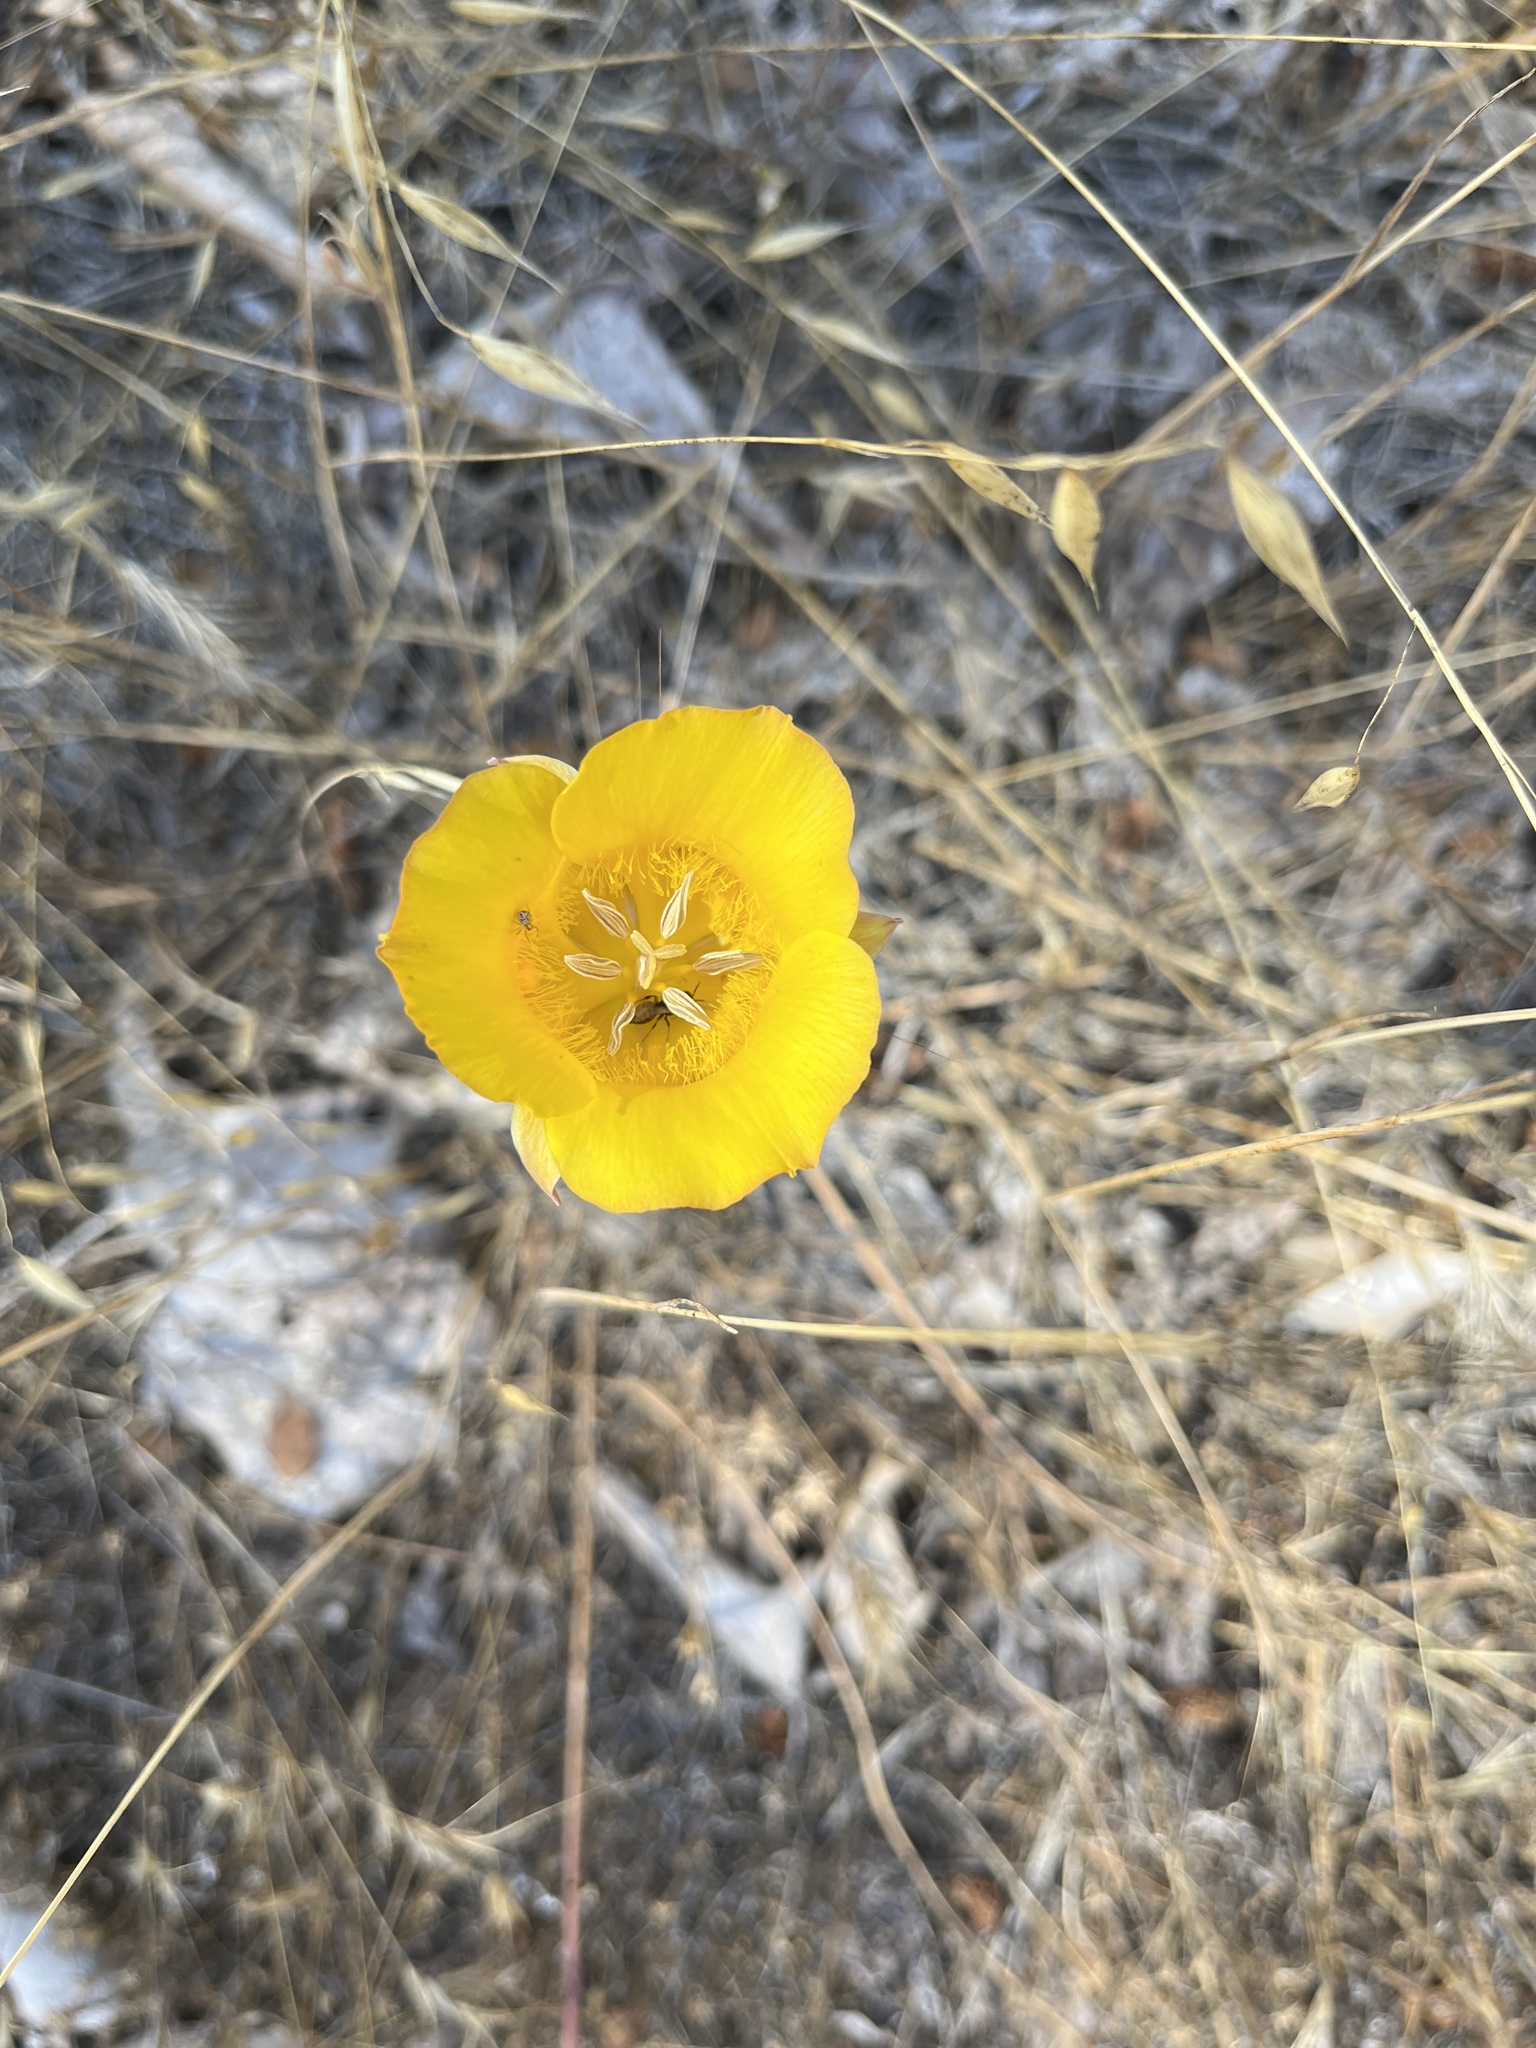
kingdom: Plantae
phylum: Tracheophyta
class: Liliopsida
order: Liliales
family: Liliaceae
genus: Calochortus
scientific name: Calochortus clavatus
